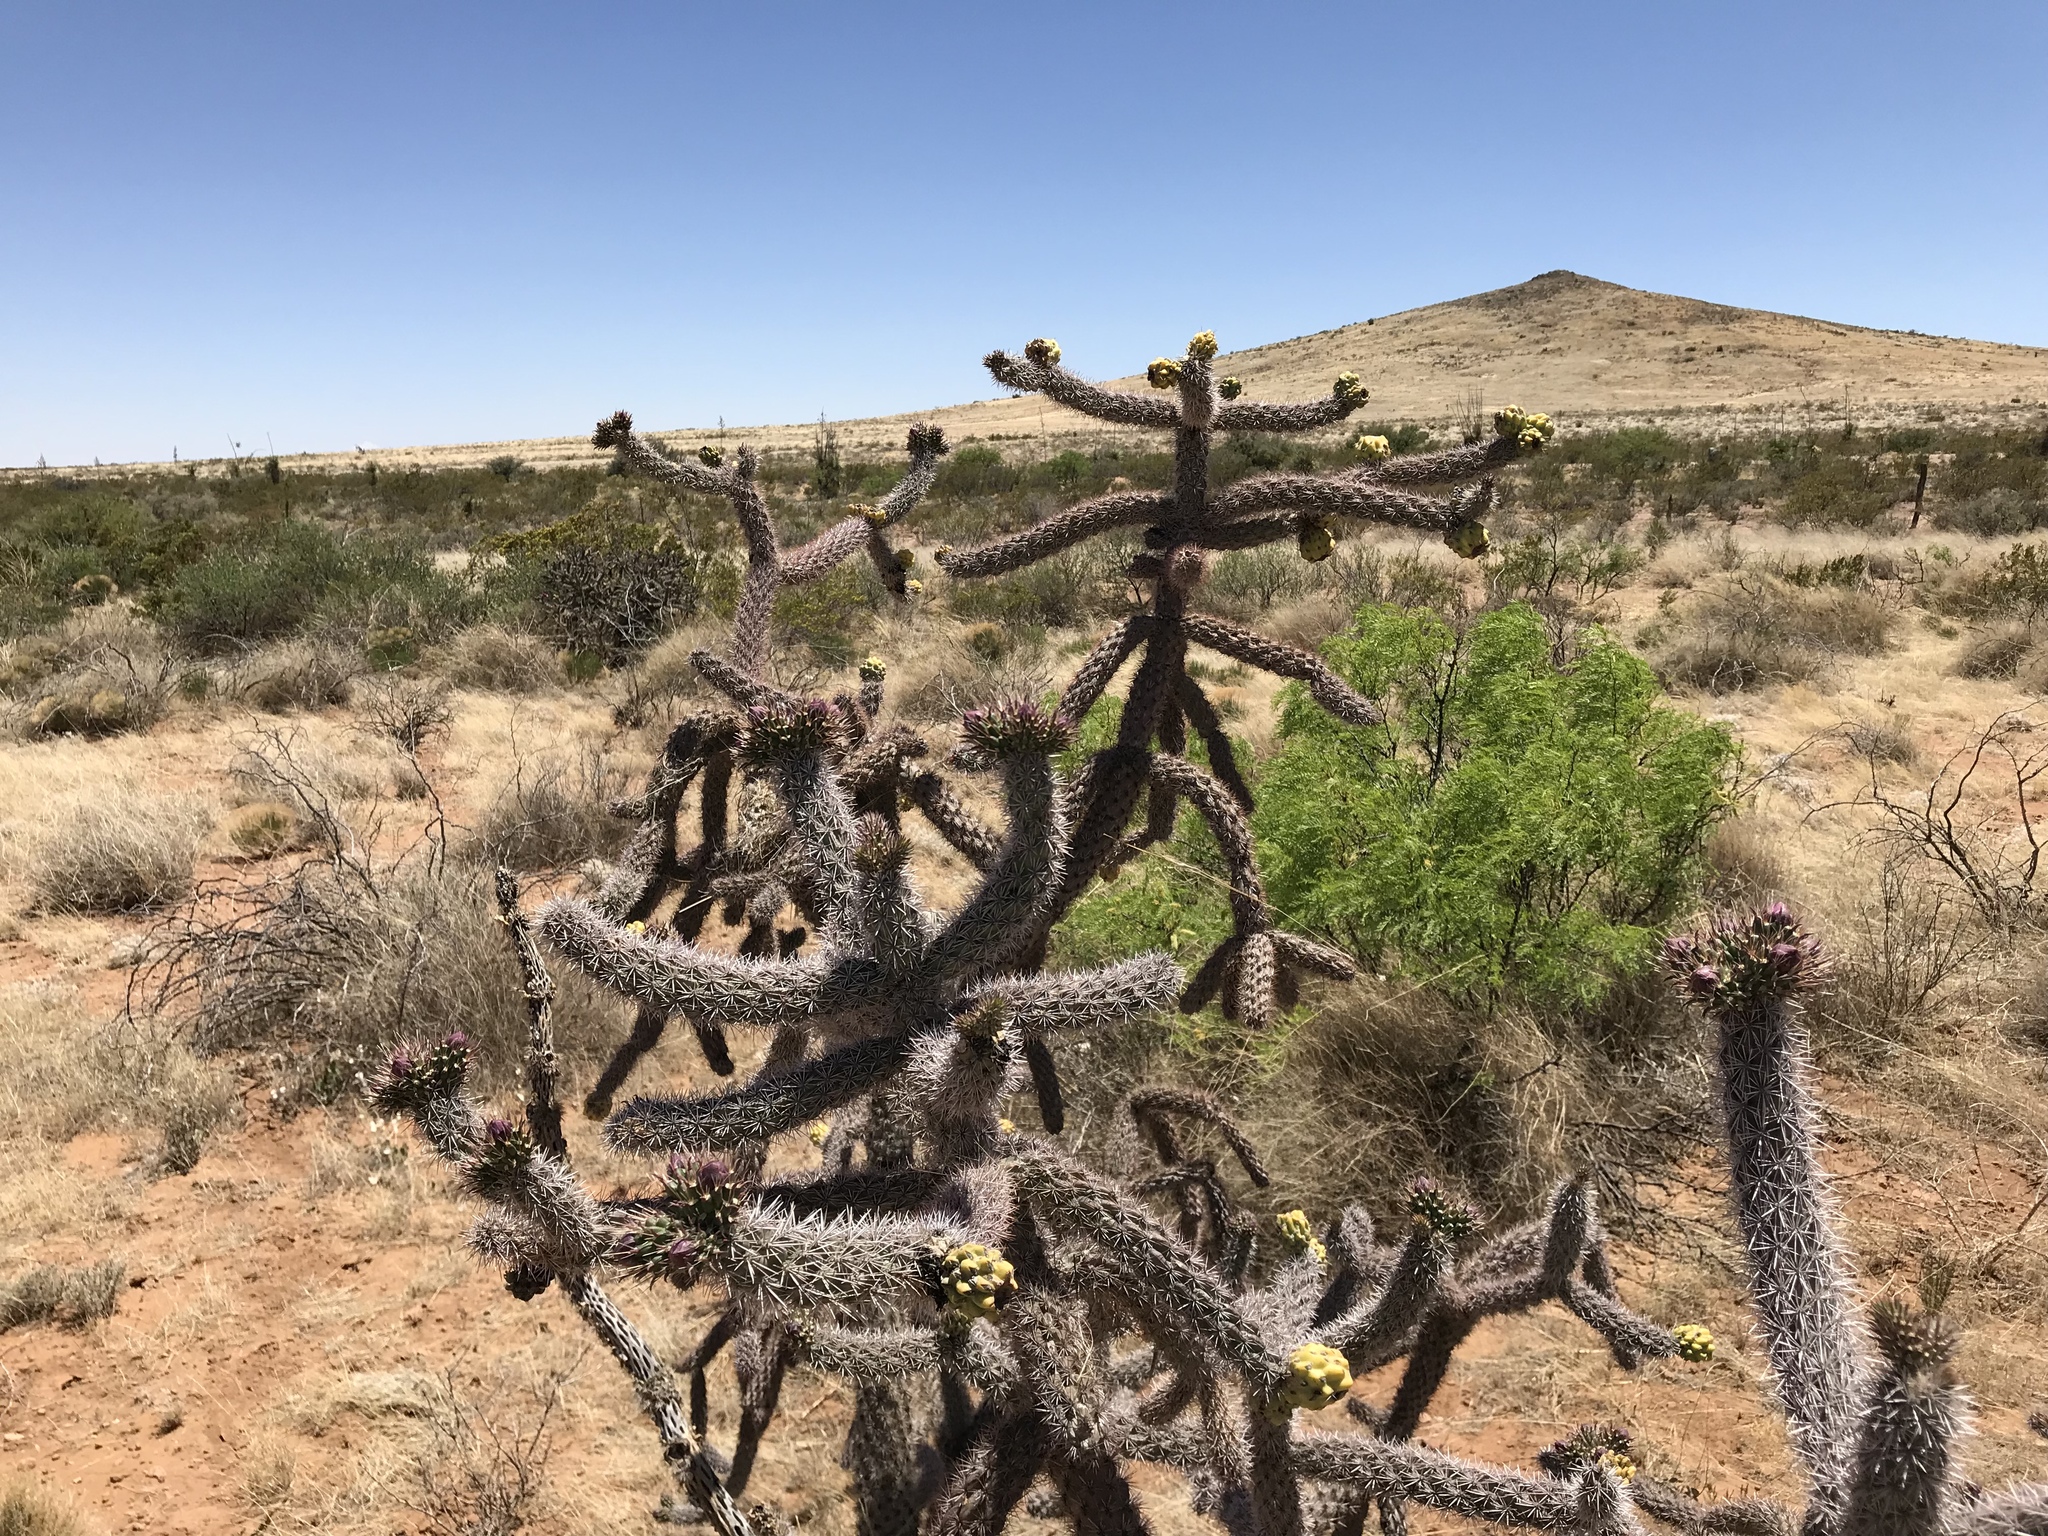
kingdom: Plantae
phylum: Tracheophyta
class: Magnoliopsida
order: Caryophyllales
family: Cactaceae
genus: Cylindropuntia
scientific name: Cylindropuntia imbricata
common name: Candelabrum cactus
